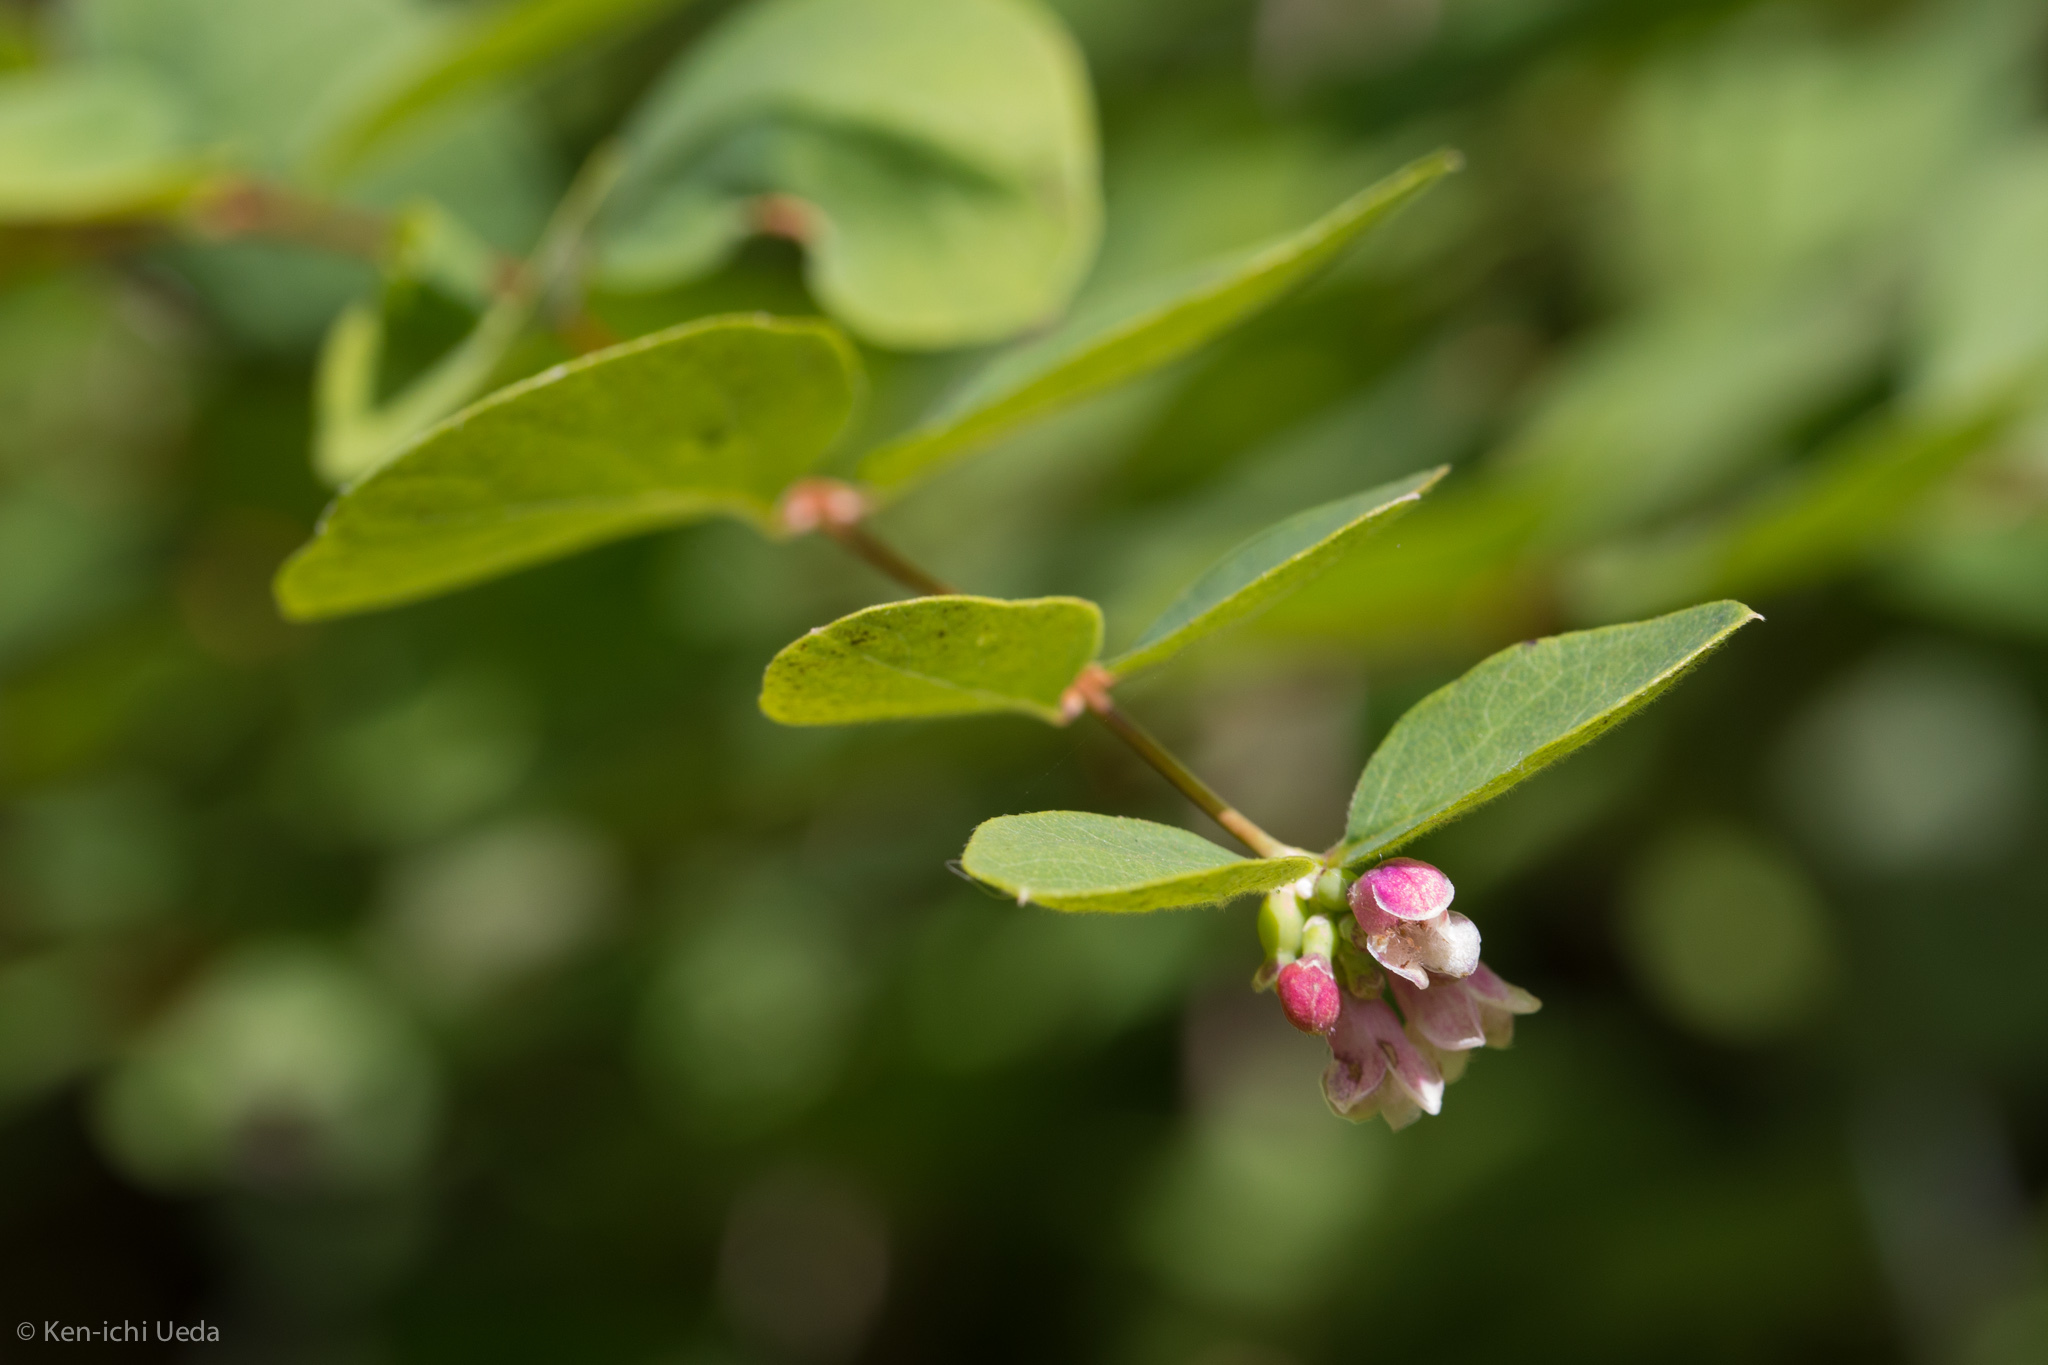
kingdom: Plantae
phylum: Tracheophyta
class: Magnoliopsida
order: Dipsacales
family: Caprifoliaceae
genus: Symphoricarpos
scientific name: Symphoricarpos albus
